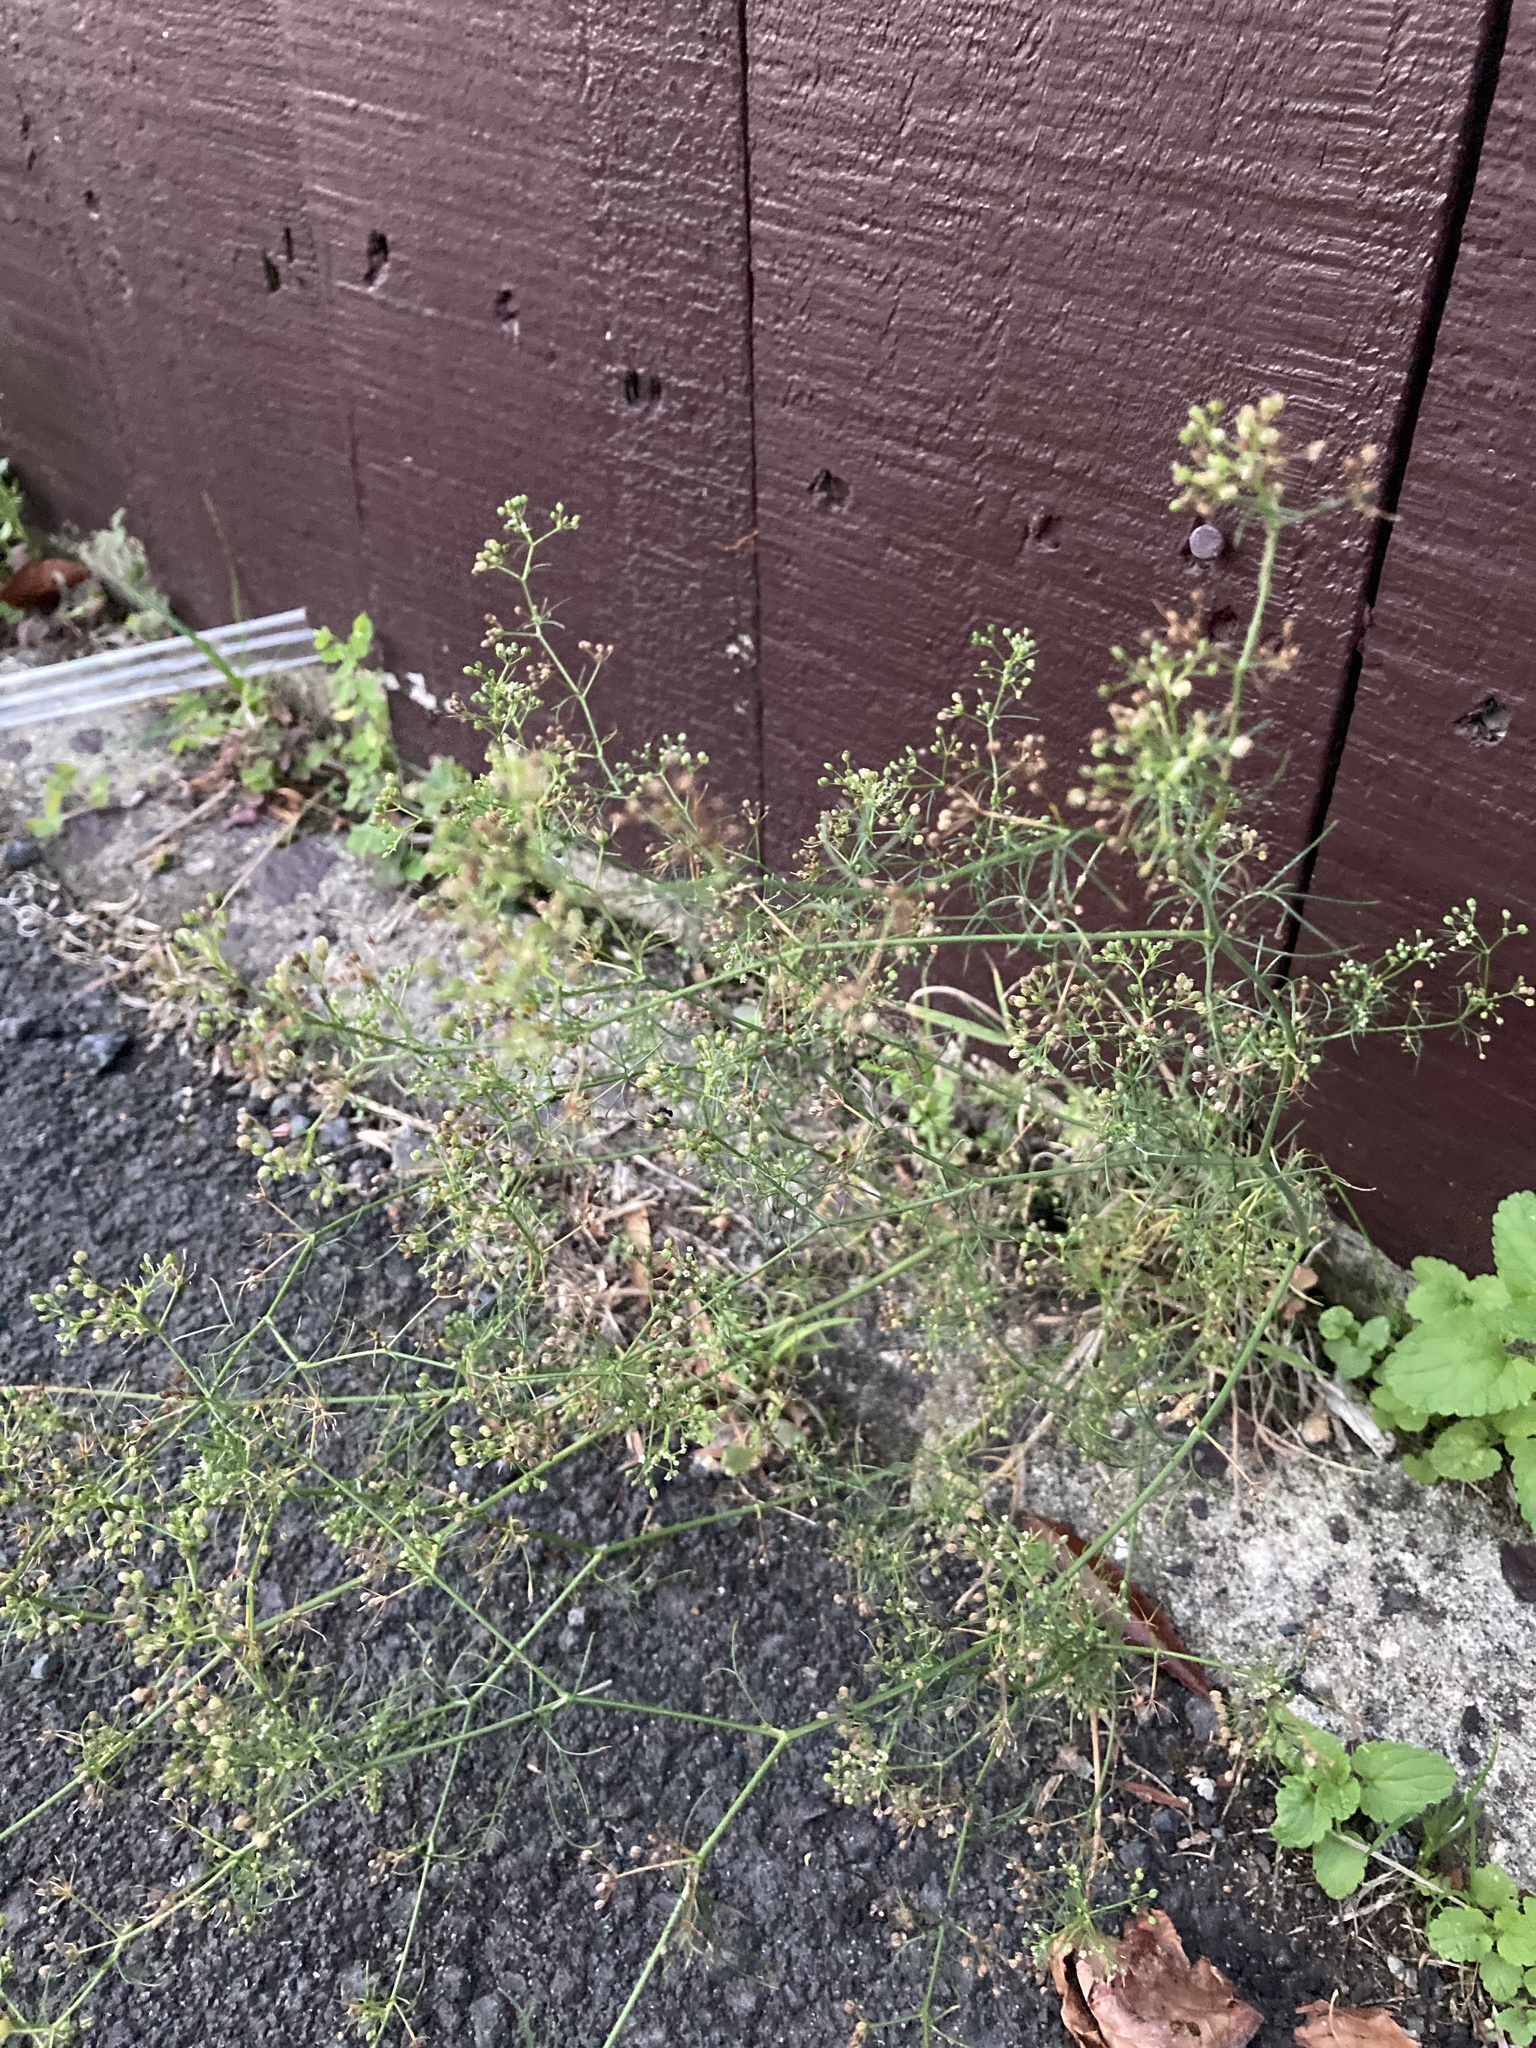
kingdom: Plantae
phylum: Tracheophyta
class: Magnoliopsida
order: Apiales
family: Apiaceae
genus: Cyclospermum
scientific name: Cyclospermum leptophyllum
